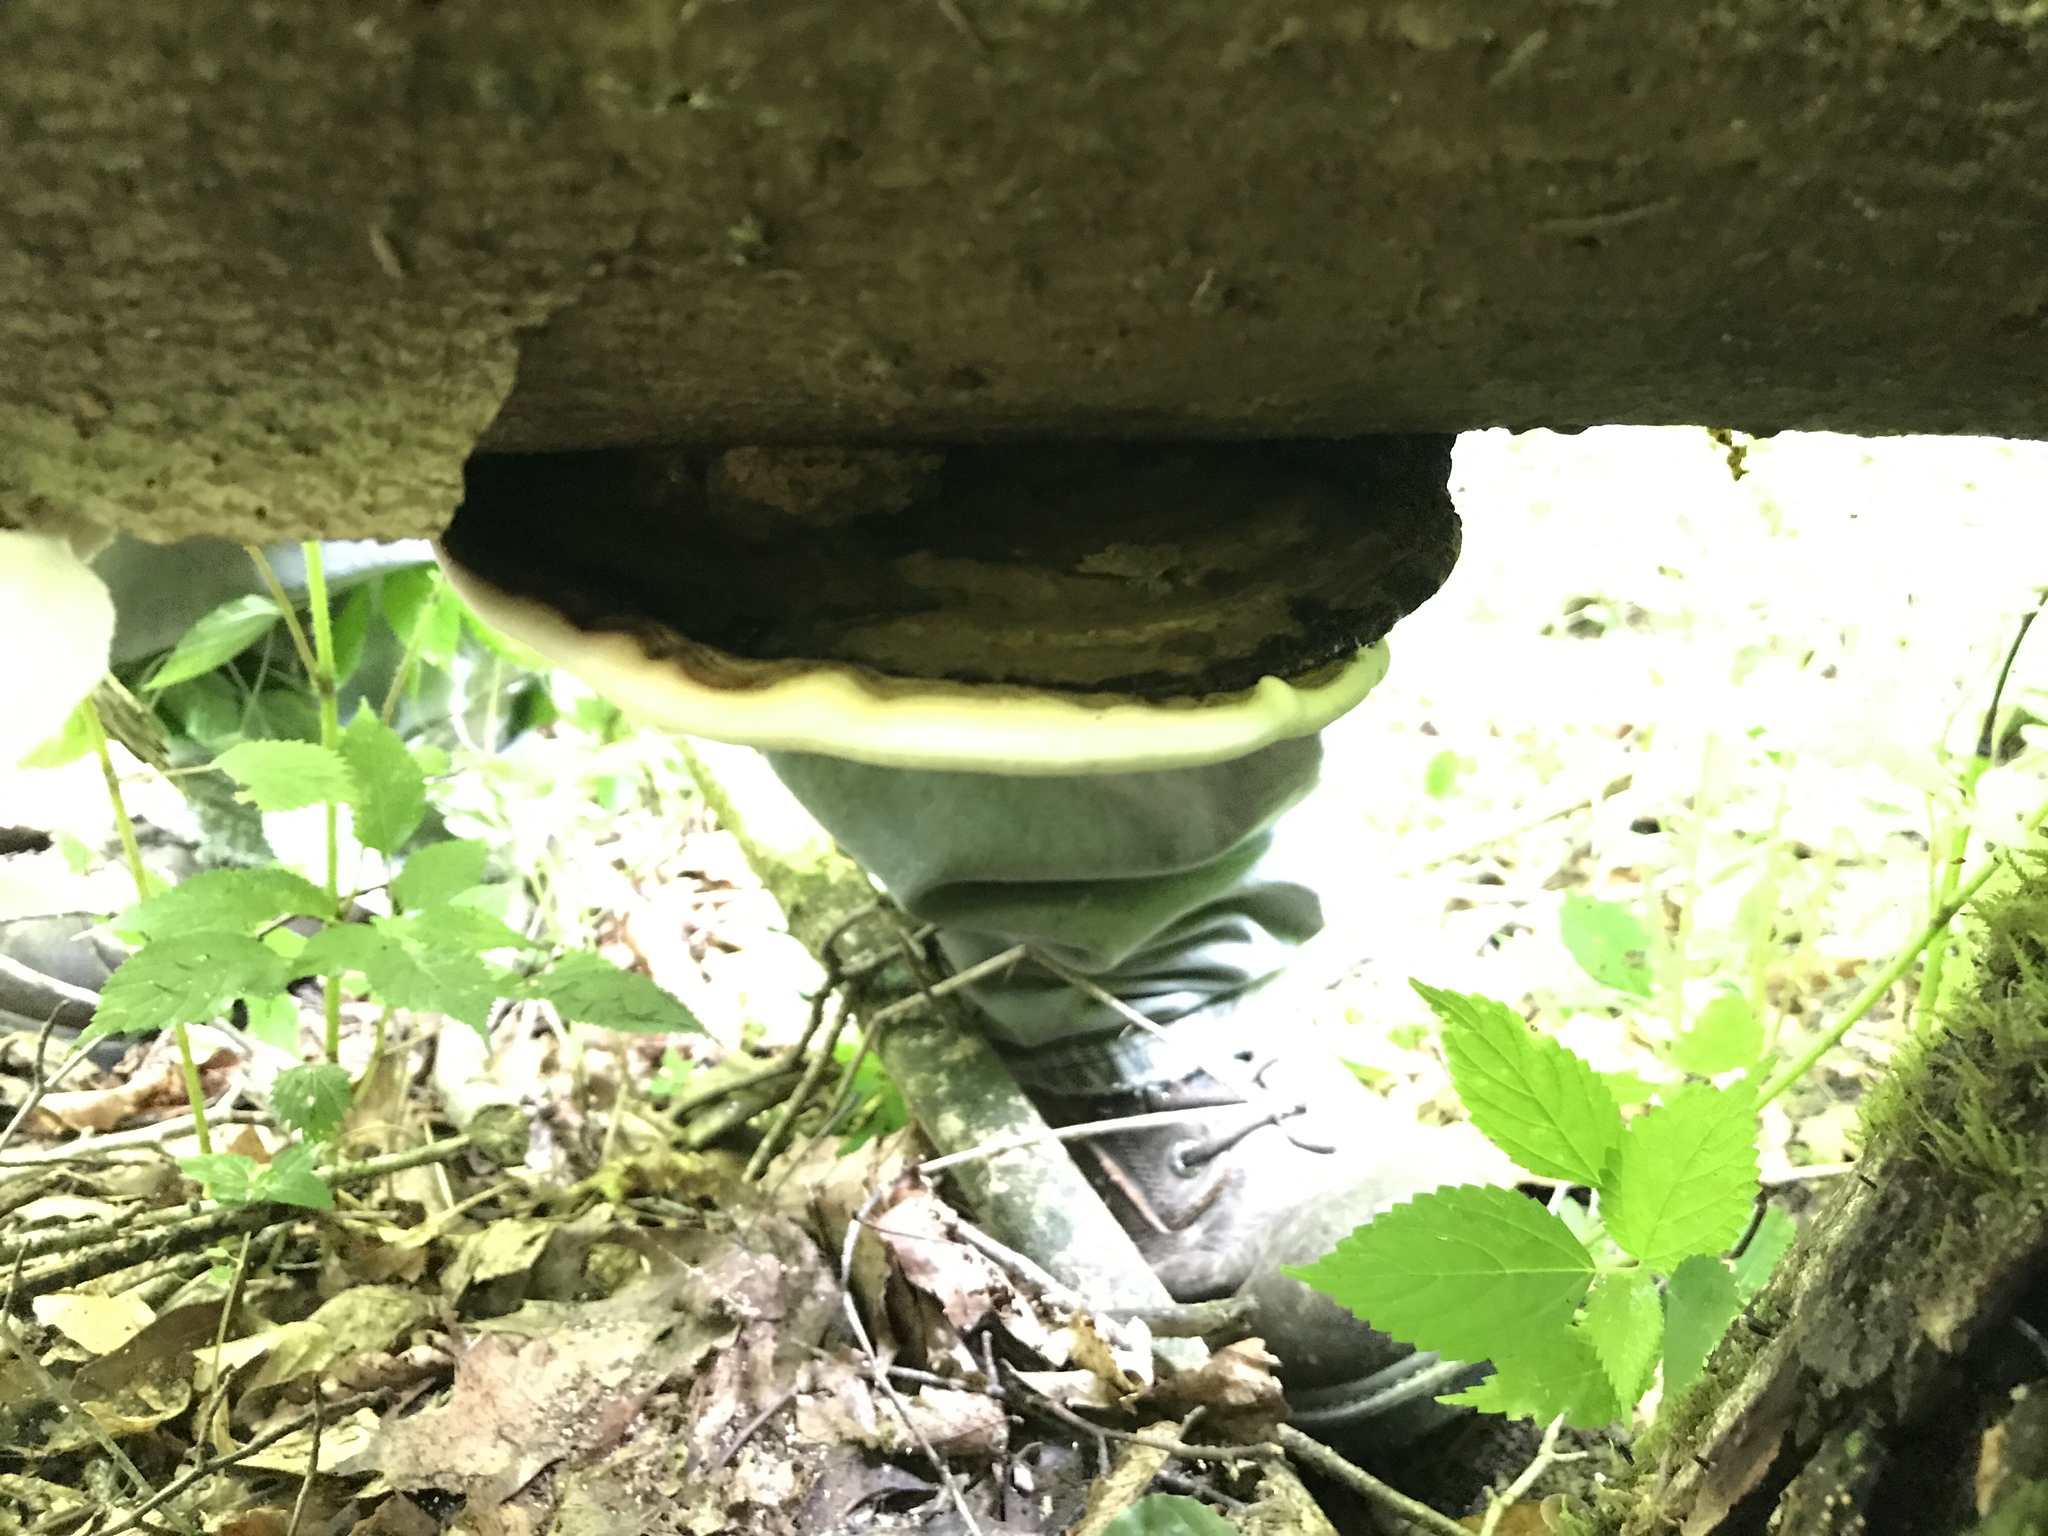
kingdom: Fungi
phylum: Basidiomycota
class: Agaricomycetes
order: Polyporales
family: Polyporaceae
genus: Ganoderma
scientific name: Ganoderma applanatum
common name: Artist's bracket
